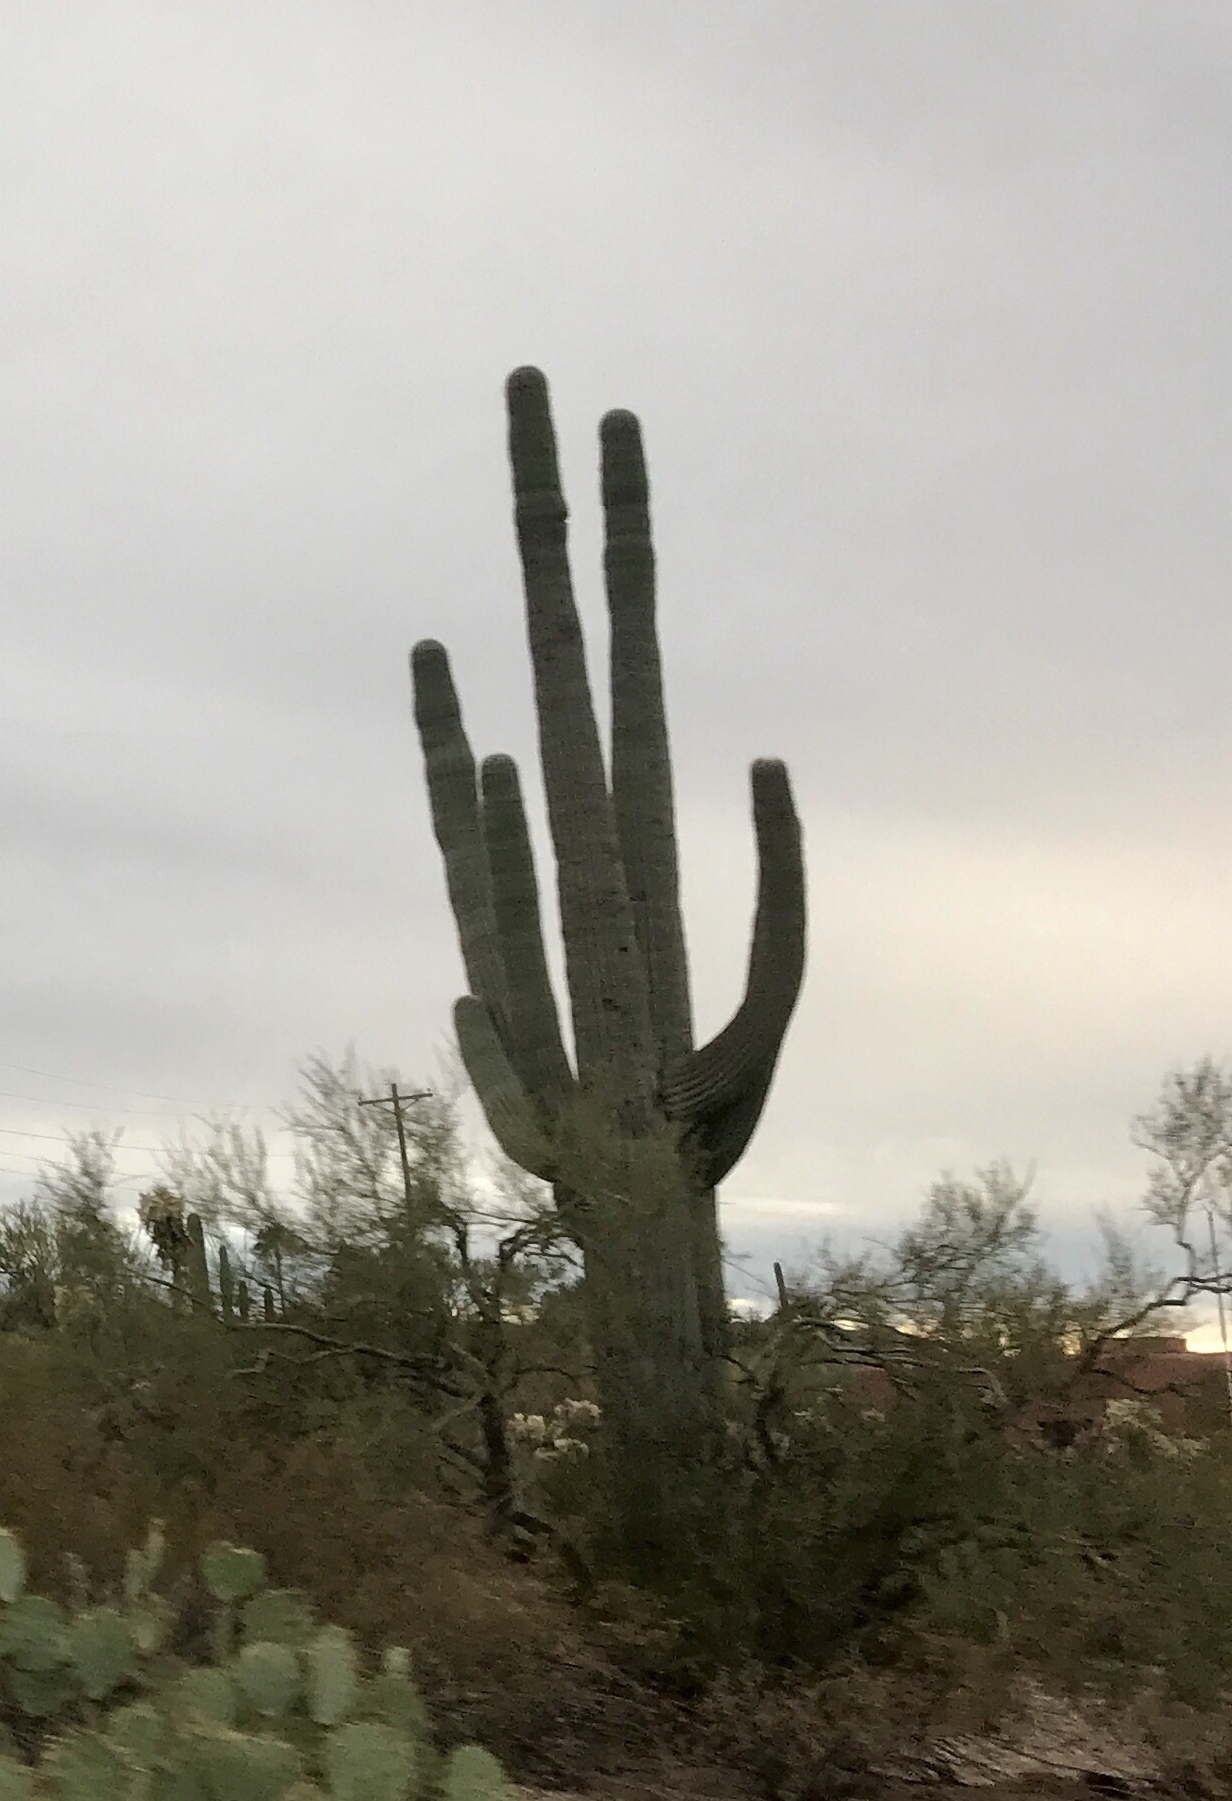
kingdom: Plantae
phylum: Tracheophyta
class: Magnoliopsida
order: Caryophyllales
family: Cactaceae
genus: Carnegiea
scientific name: Carnegiea gigantea
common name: Saguaro
